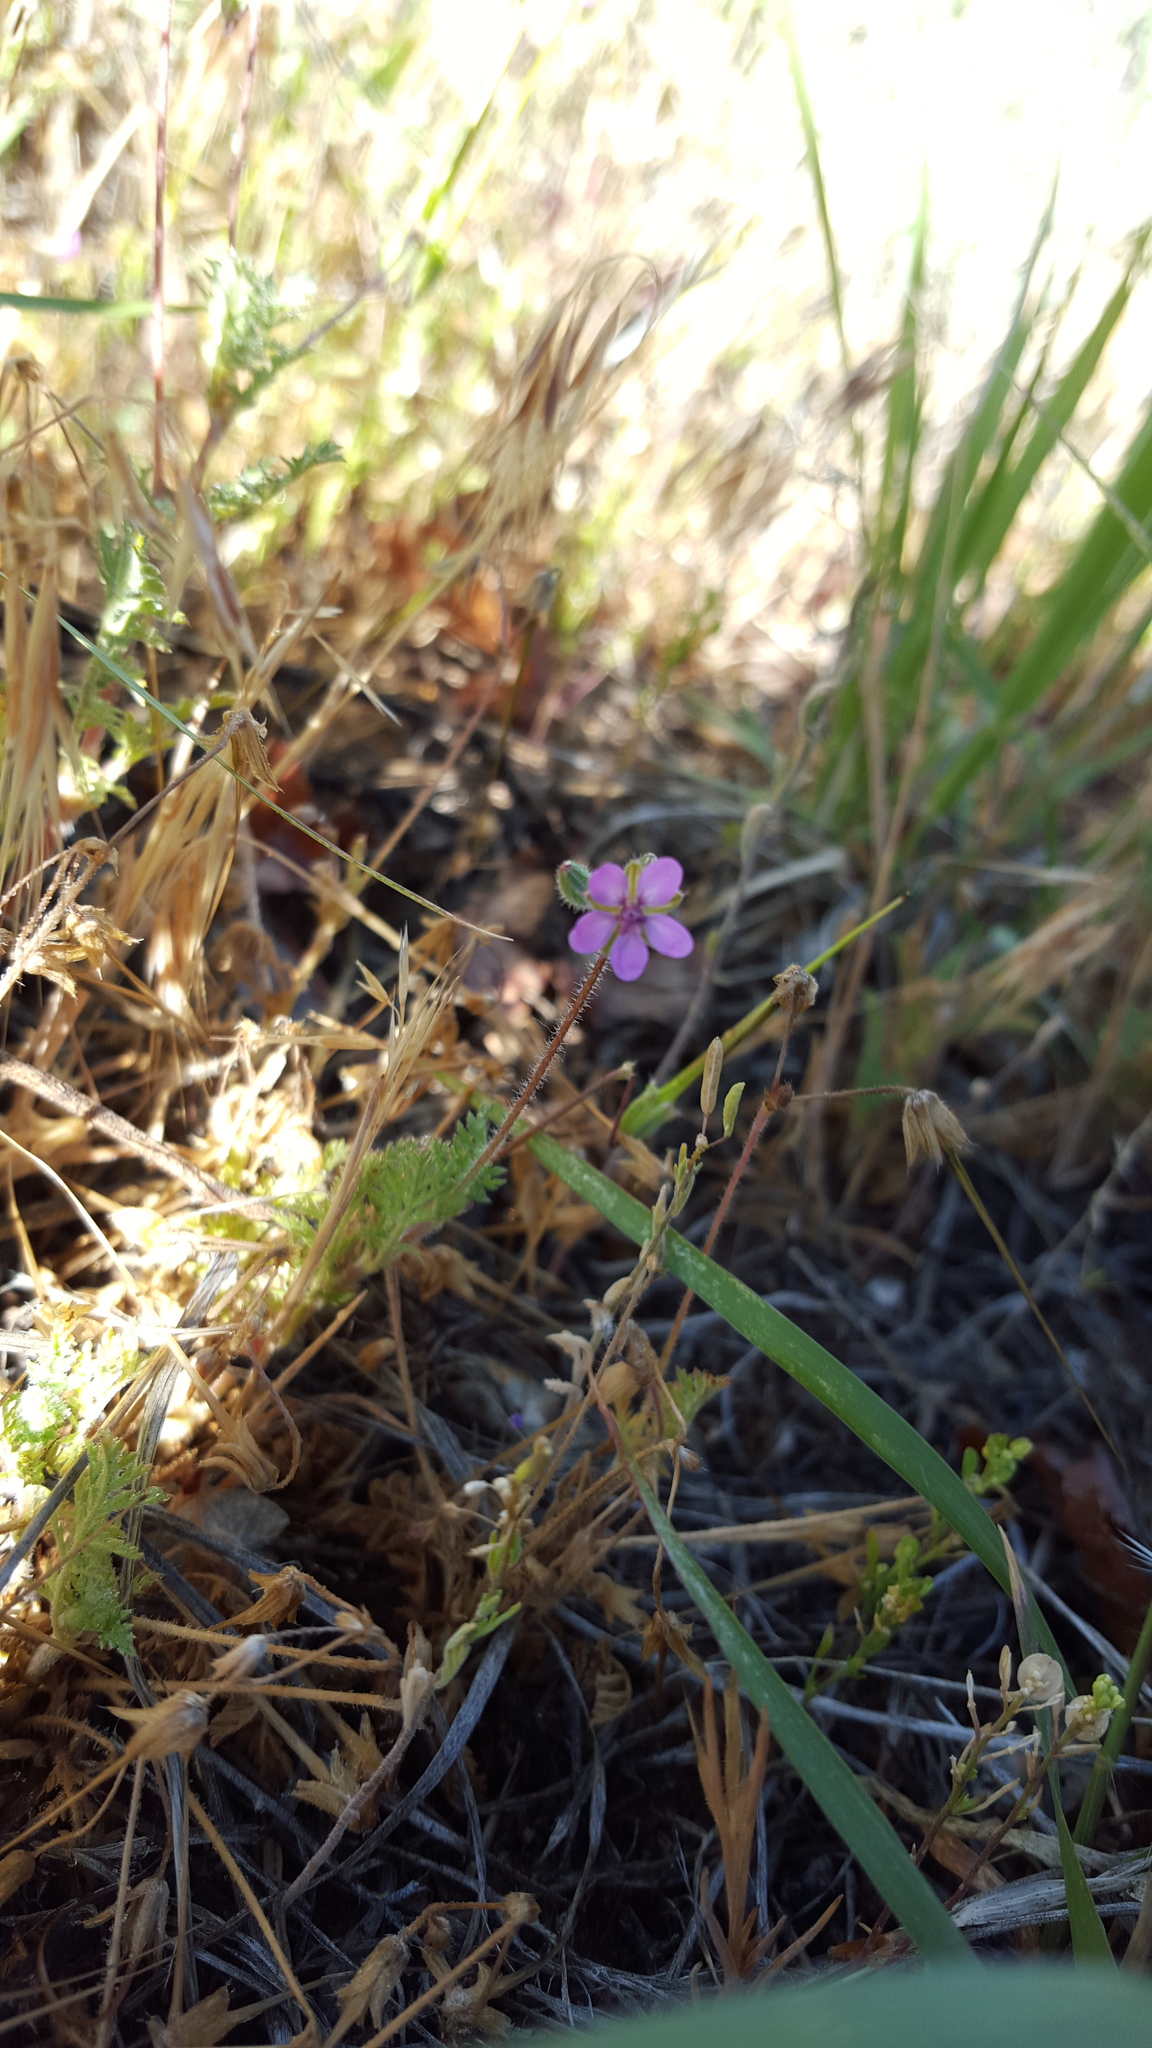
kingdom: Plantae
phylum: Tracheophyta
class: Magnoliopsida
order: Geraniales
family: Geraniaceae
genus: Erodium
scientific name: Erodium cicutarium
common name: Common stork's-bill
